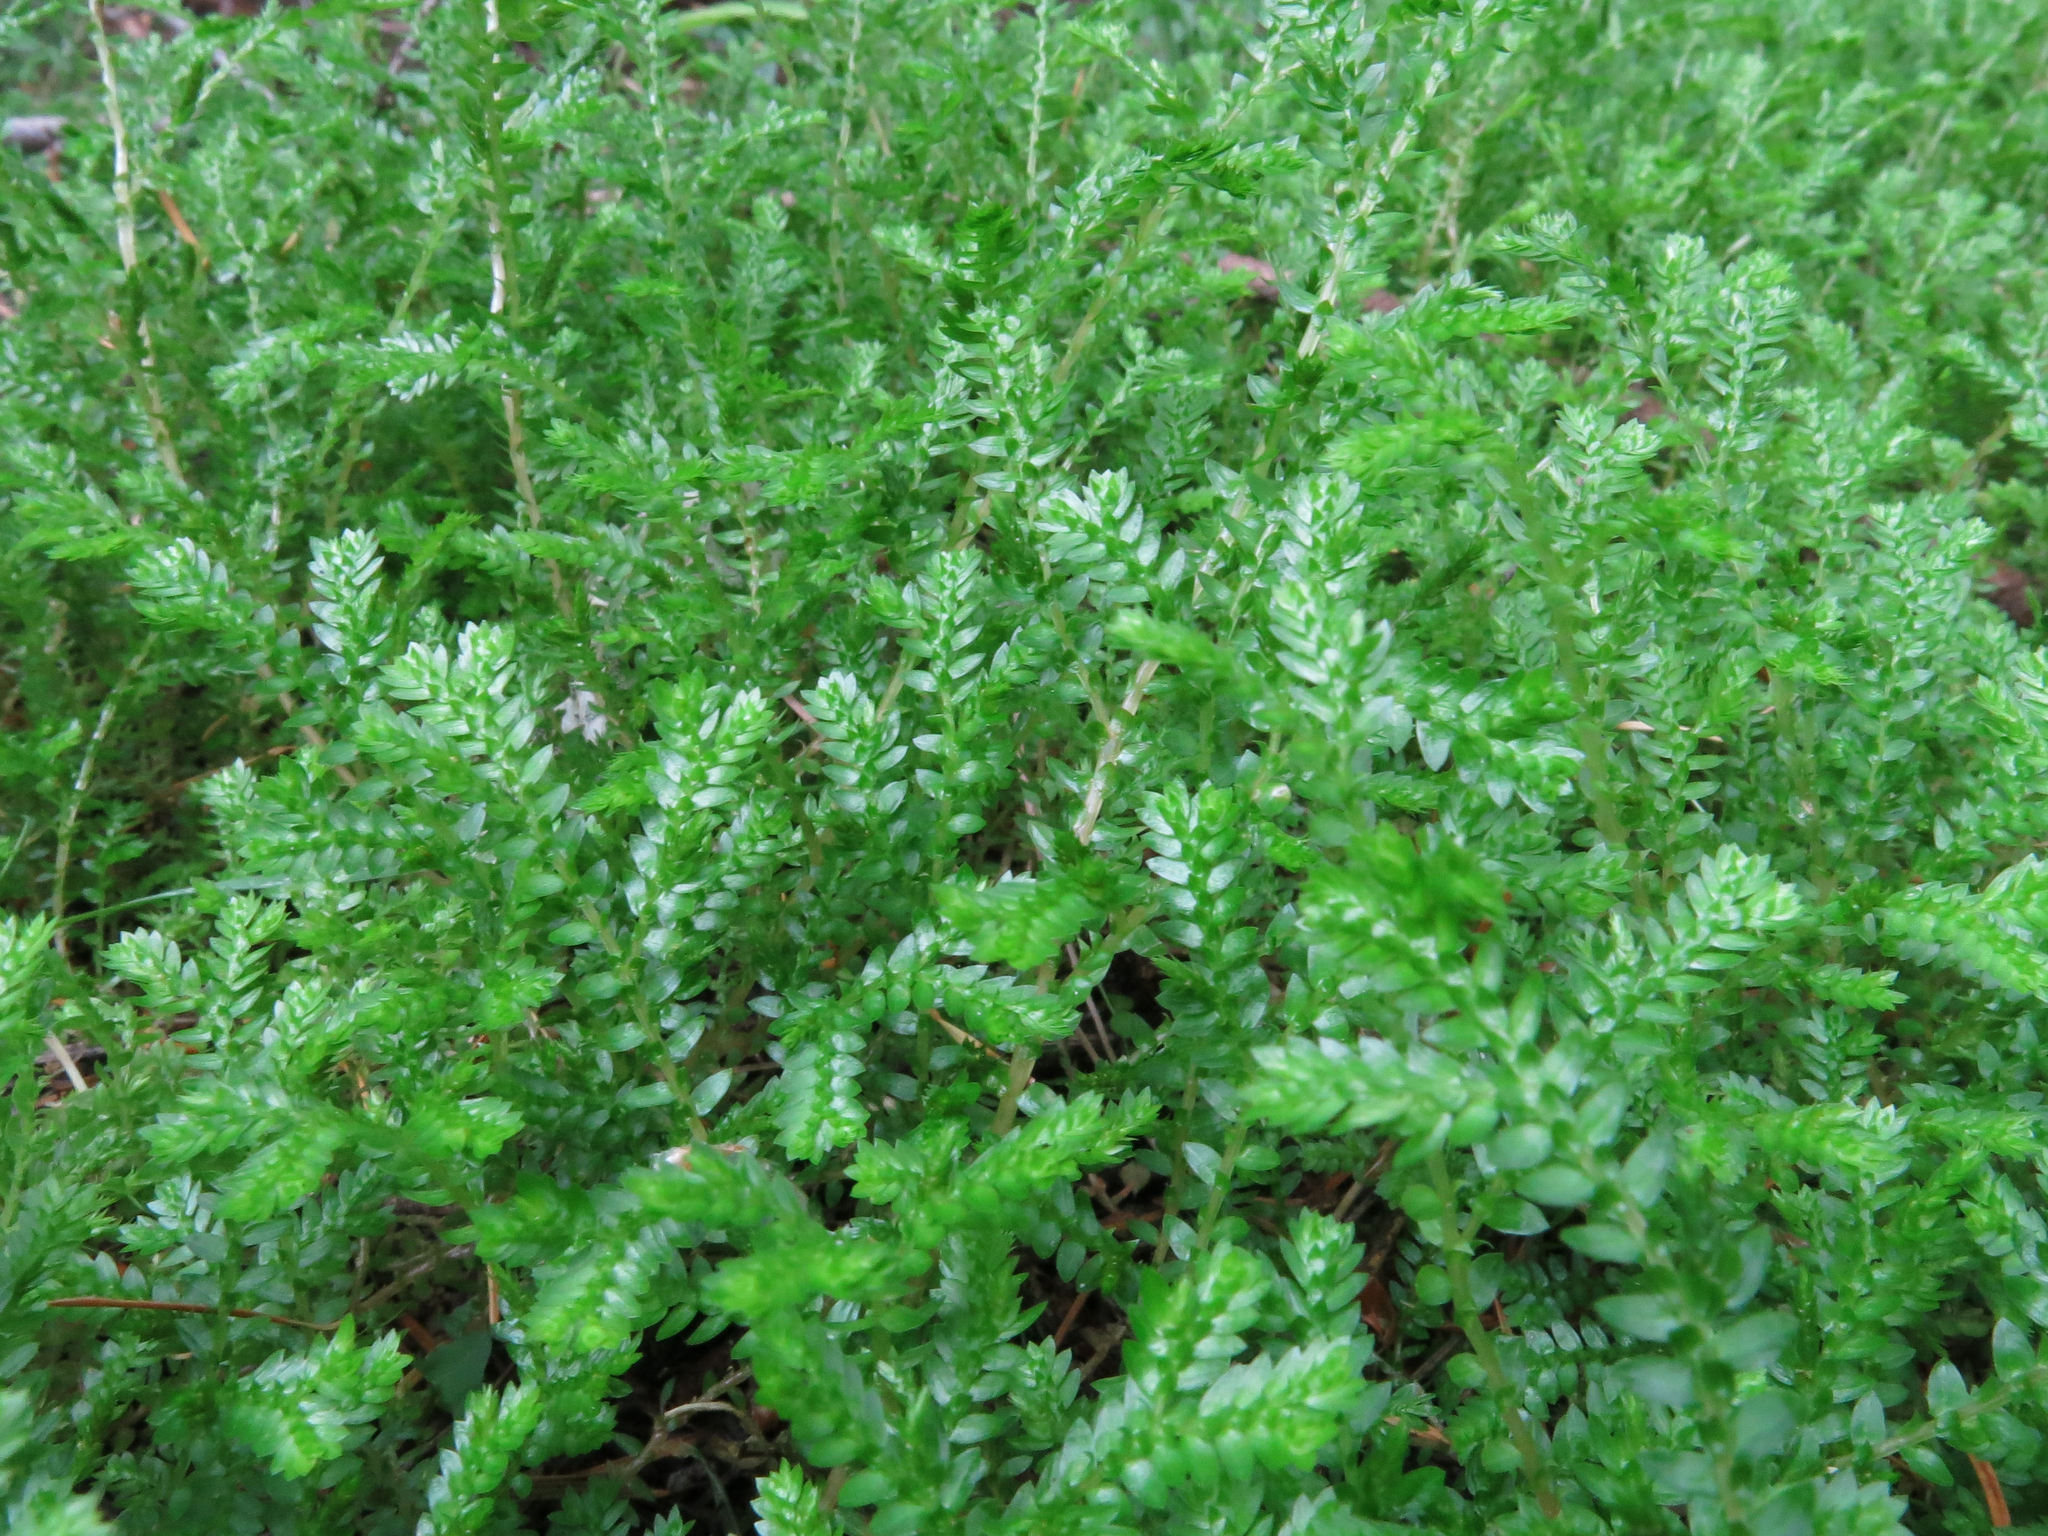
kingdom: Plantae
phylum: Tracheophyta
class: Lycopodiopsida
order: Selaginellales
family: Selaginellaceae
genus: Selaginella
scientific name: Selaginella kraussiana
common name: Krauss' spikemoss
